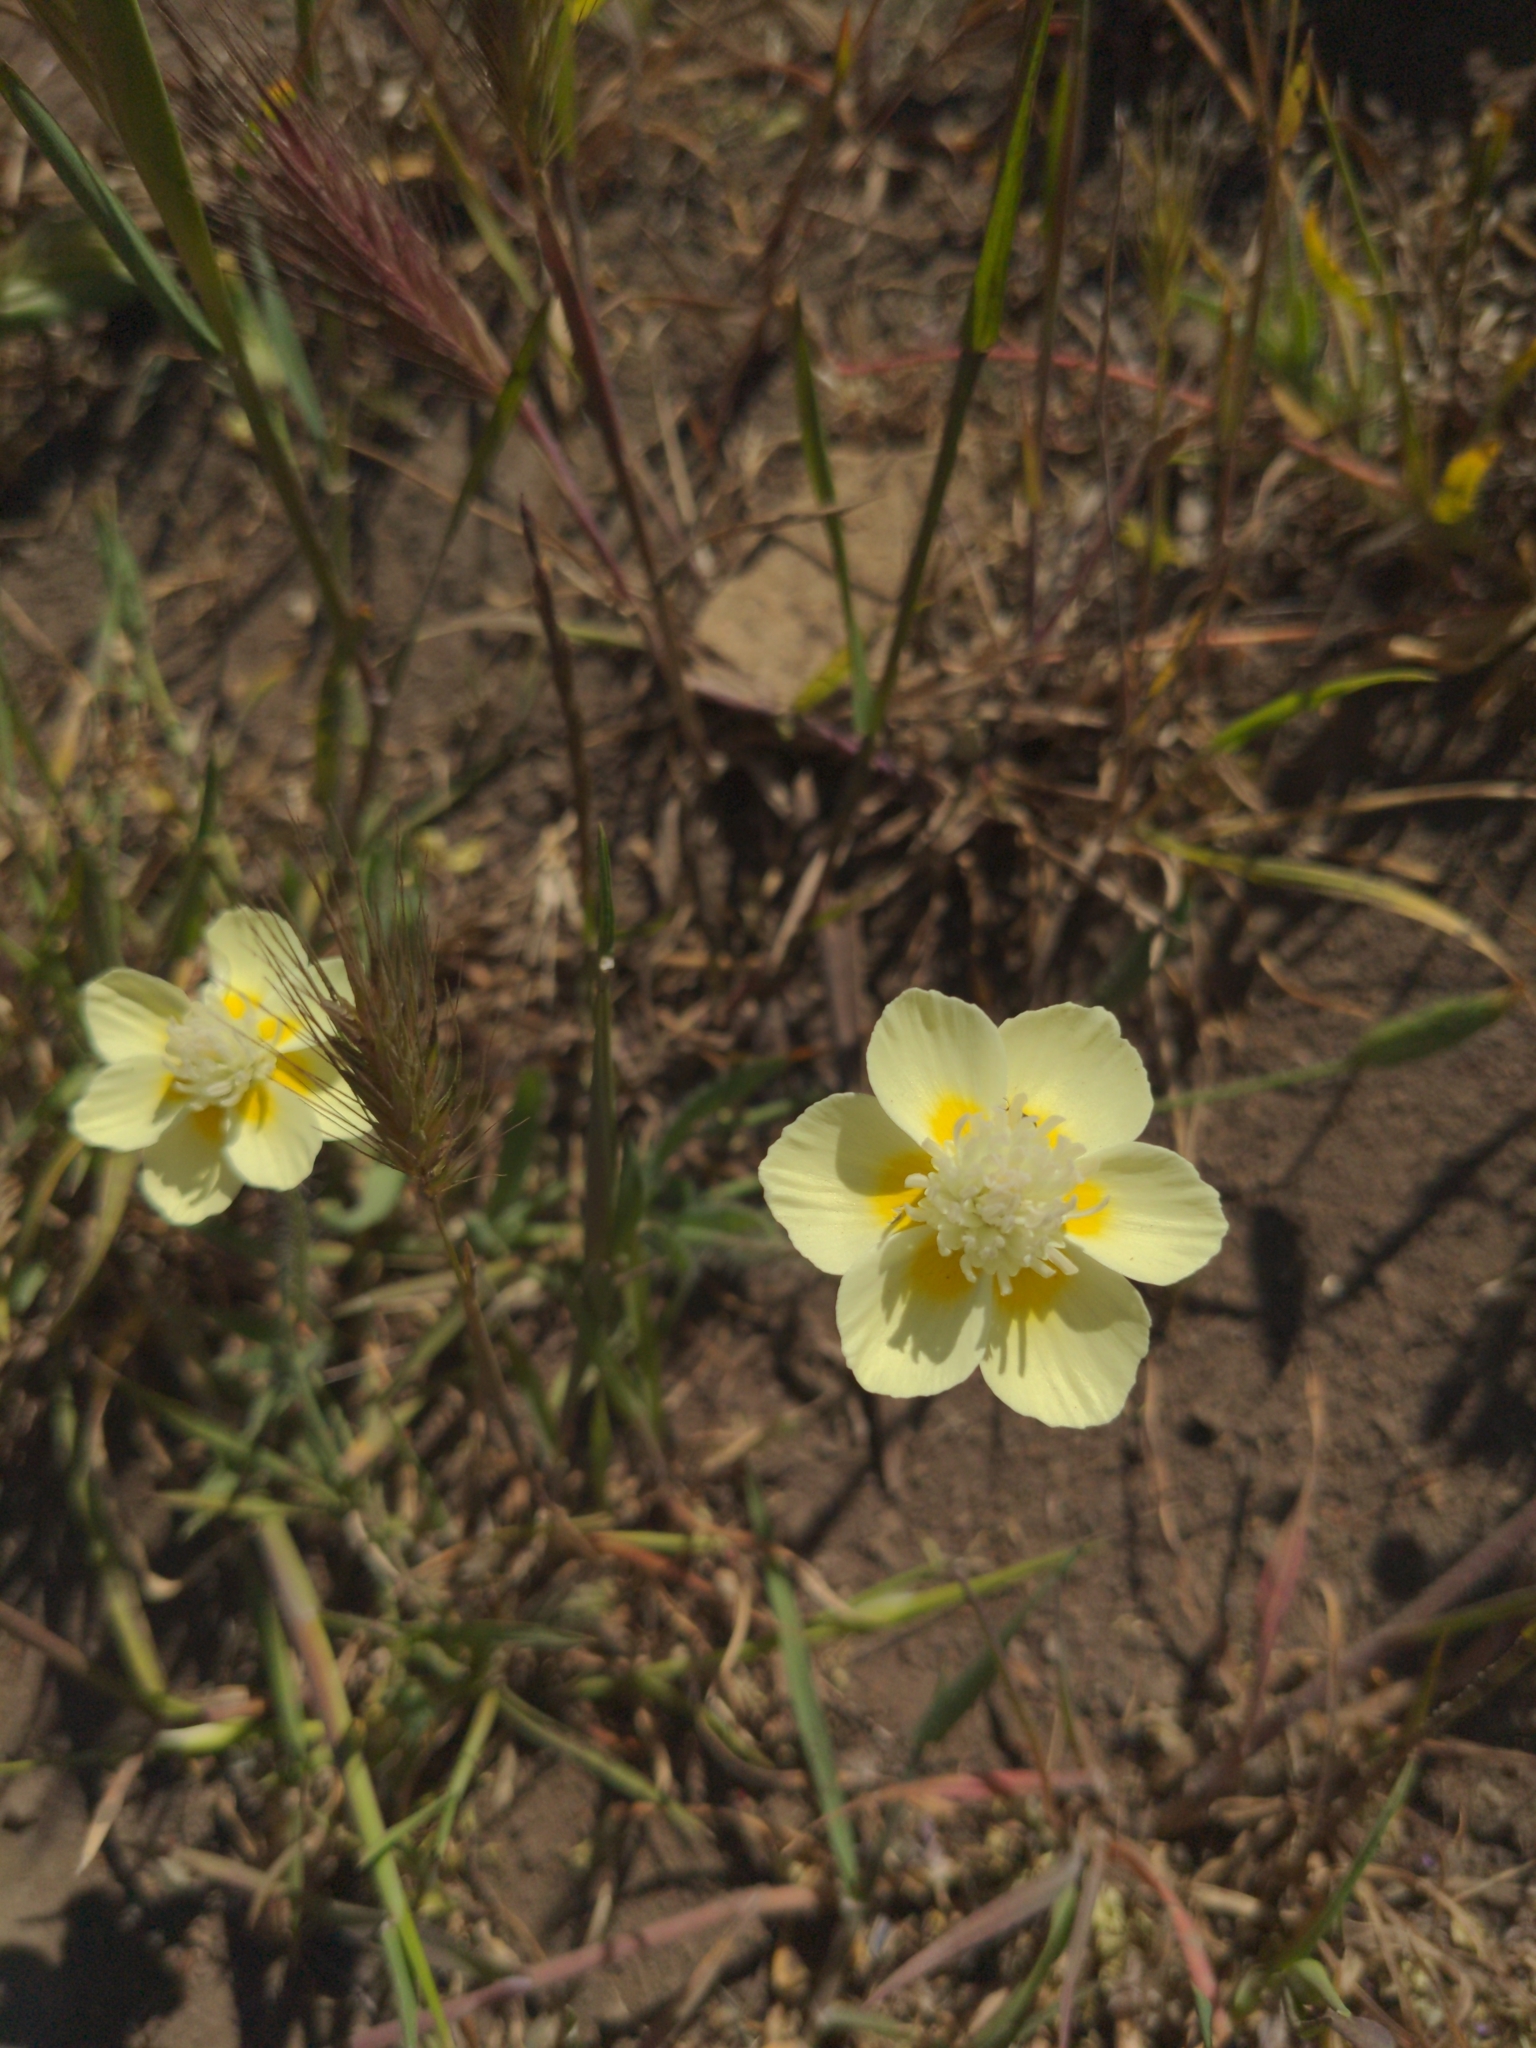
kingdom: Plantae
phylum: Tracheophyta
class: Magnoliopsida
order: Ranunculales
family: Papaveraceae
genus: Platystemon
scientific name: Platystemon californicus
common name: Cream-cups
